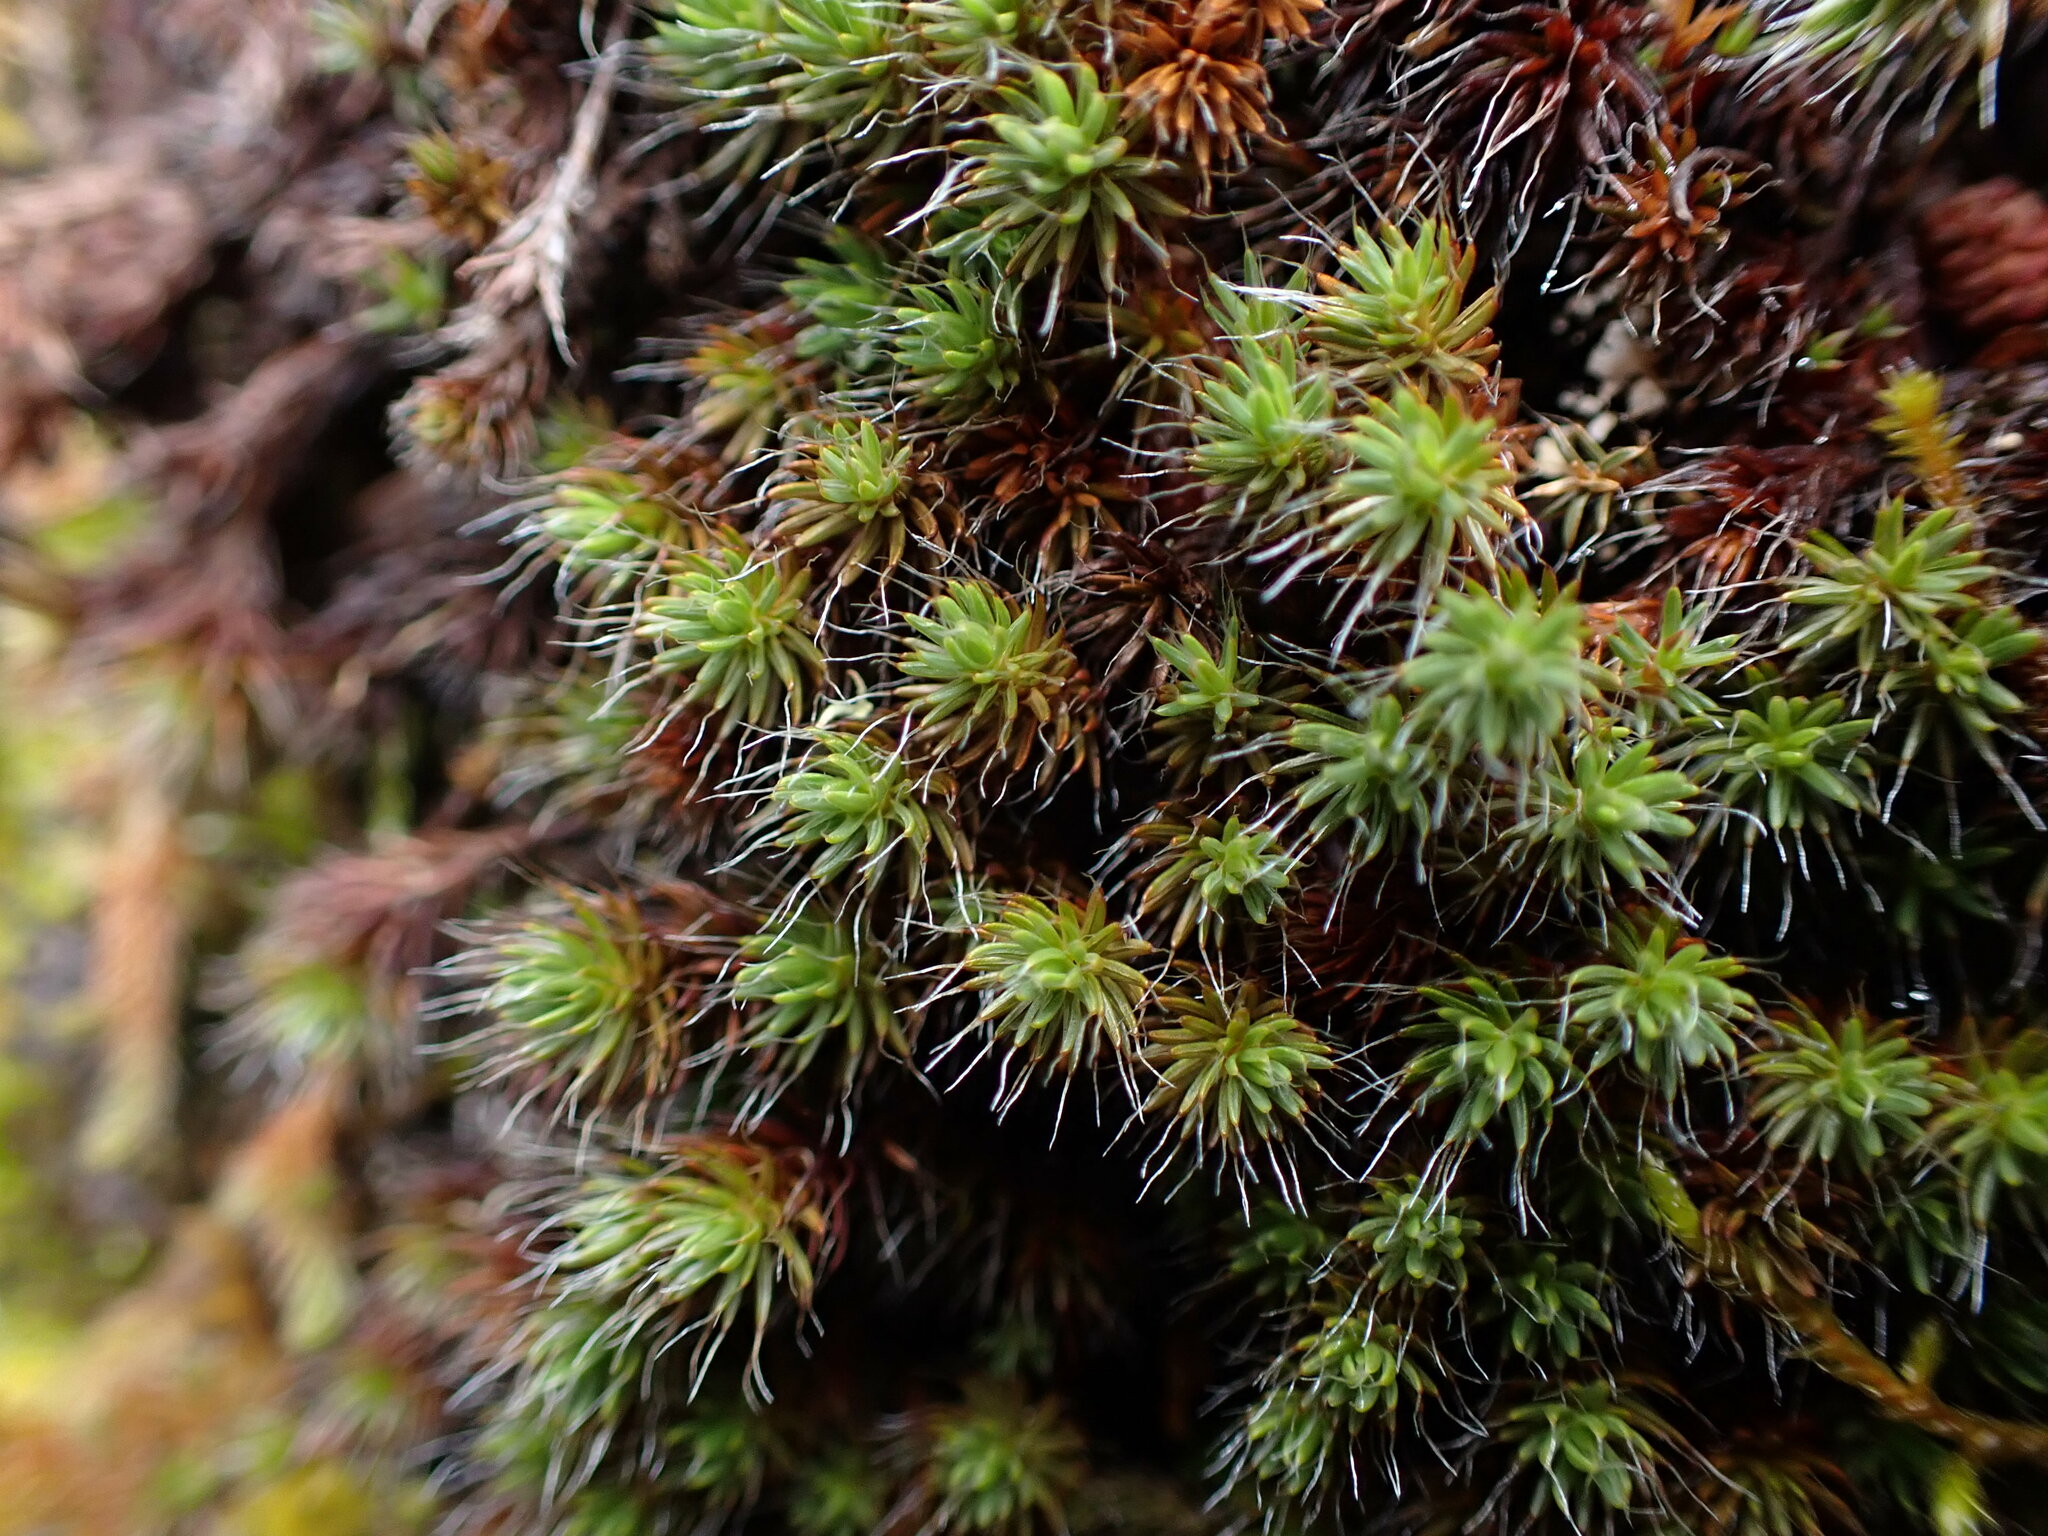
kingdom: Plantae
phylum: Bryophyta
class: Polytrichopsida
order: Polytrichales
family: Polytrichaceae
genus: Polytrichum
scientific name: Polytrichum piliferum
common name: Bristly haircap
